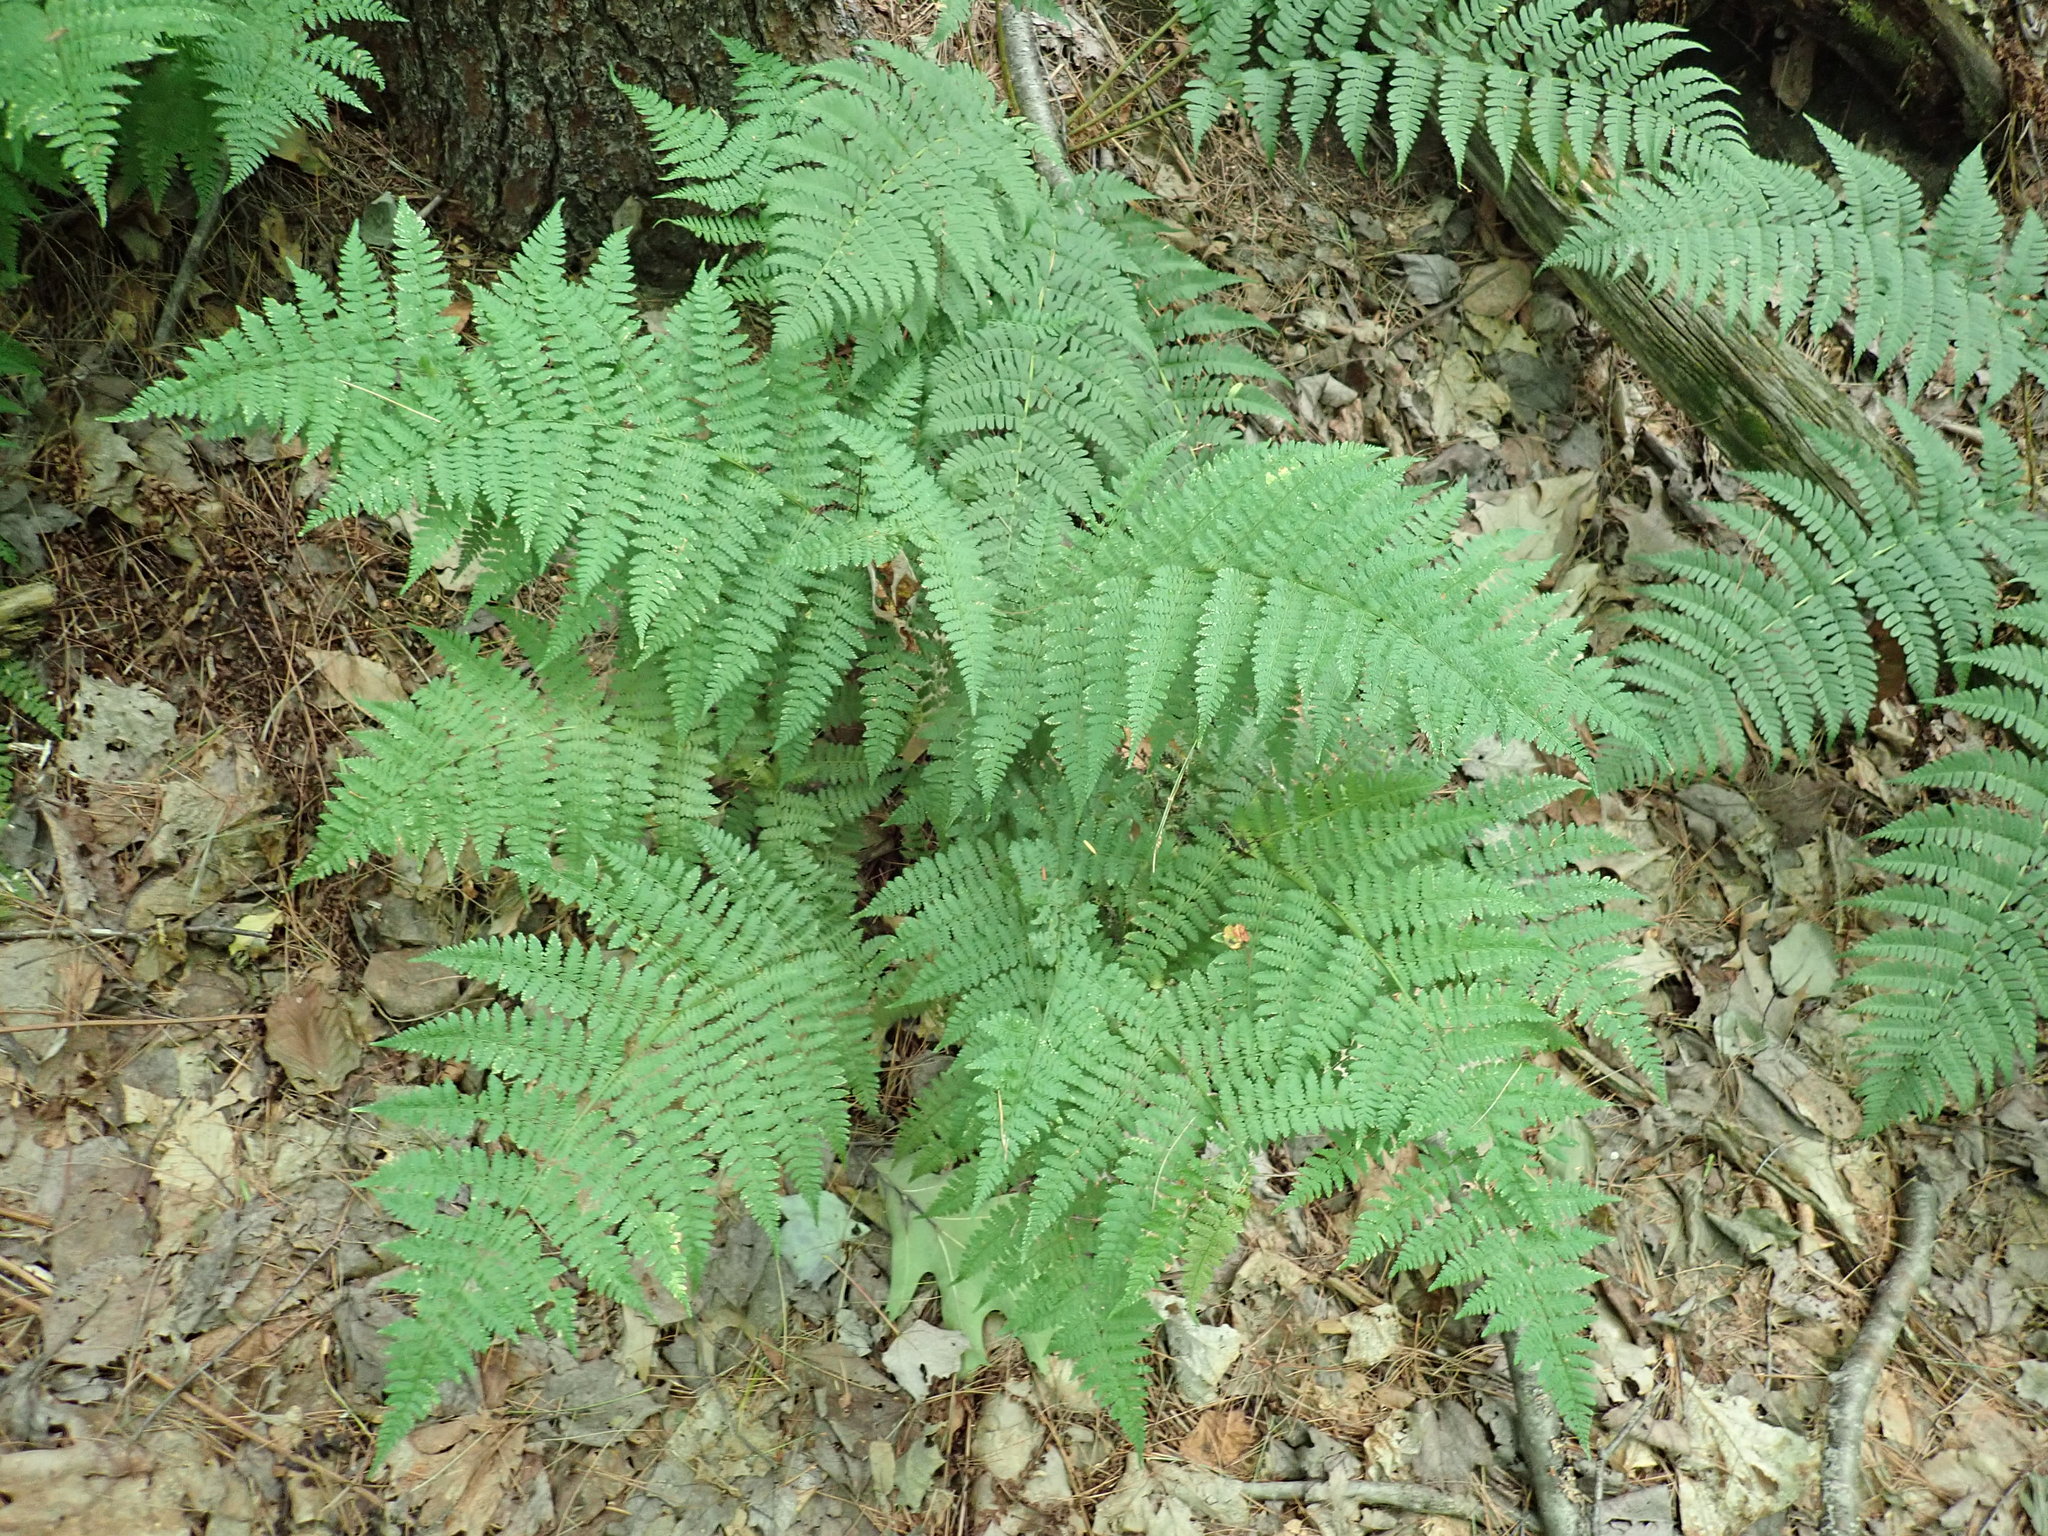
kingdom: Plantae
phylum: Tracheophyta
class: Polypodiopsida
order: Polypodiales
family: Dryopteridaceae
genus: Dryopteris
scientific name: Dryopteris intermedia
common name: Evergreen wood fern
